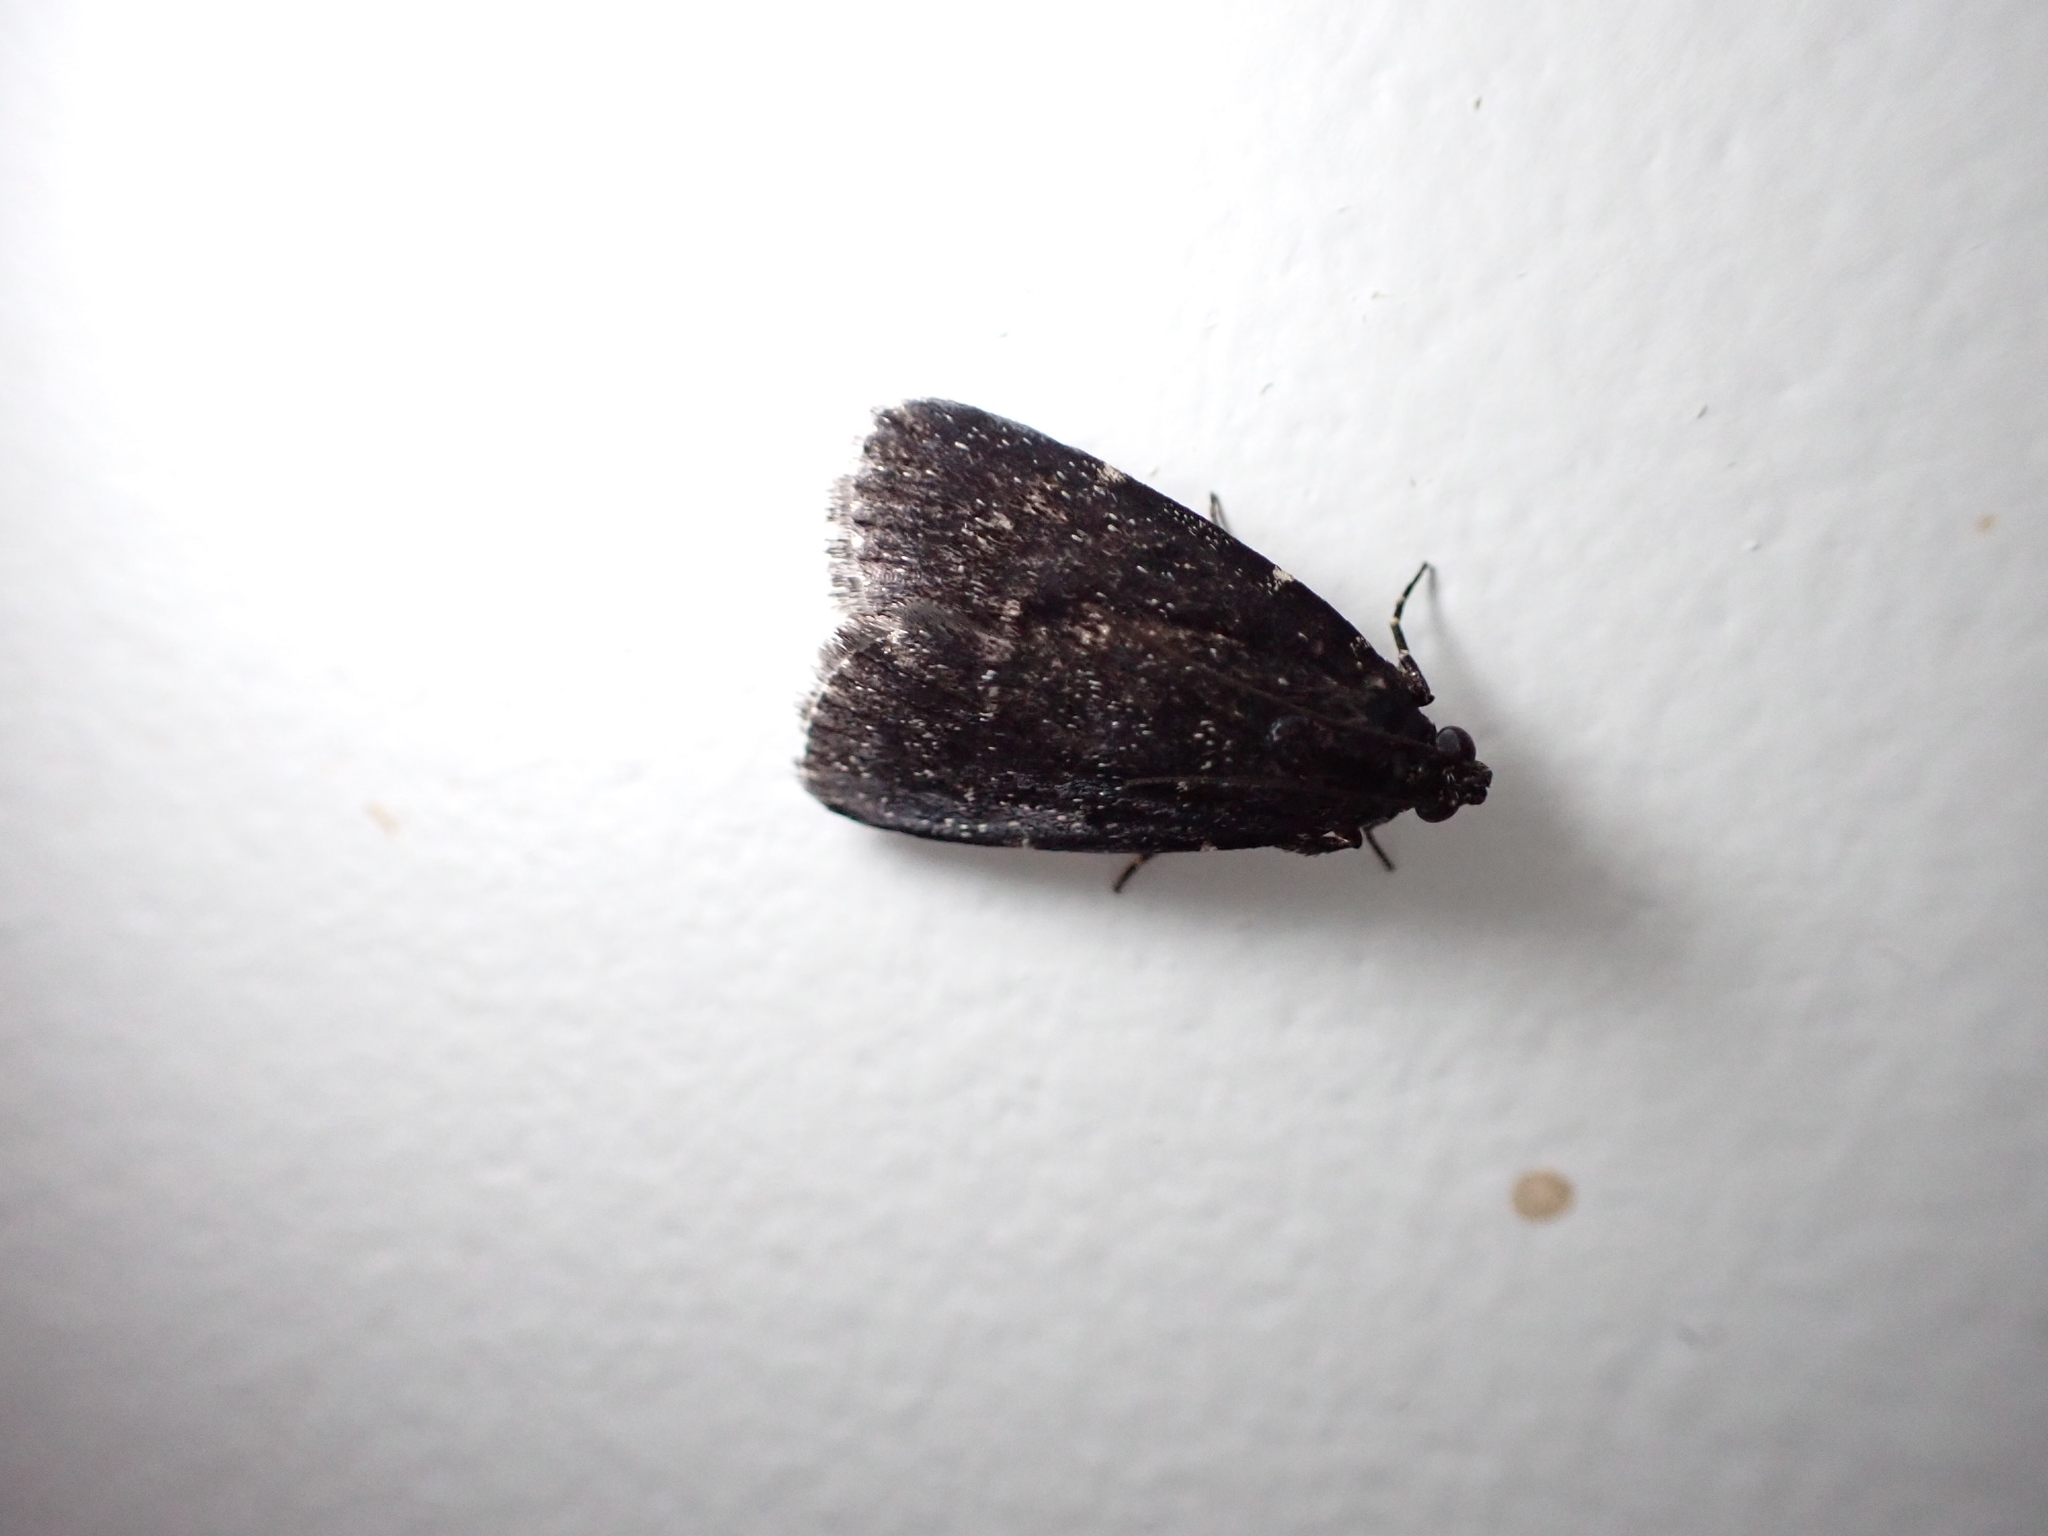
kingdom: Animalia
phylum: Arthropoda
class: Insecta
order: Lepidoptera
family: Pyralidae
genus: Stericta
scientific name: Stericta carbonalis
